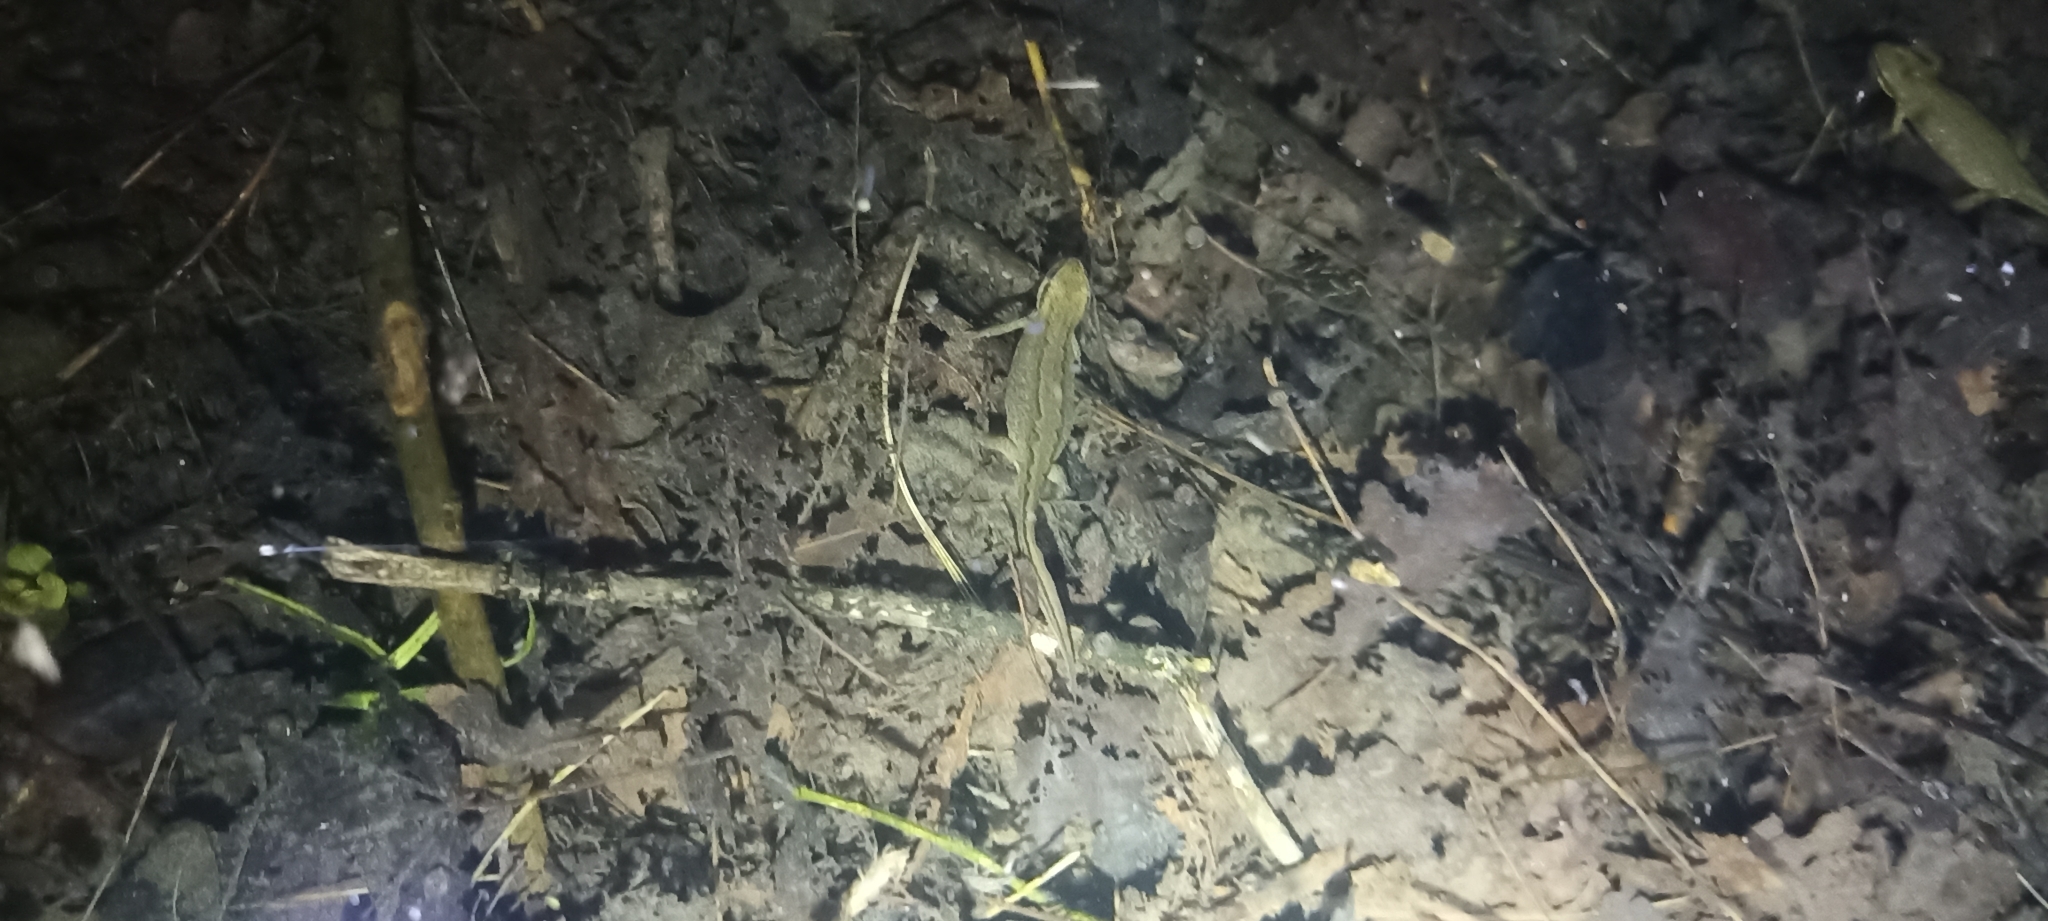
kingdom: Animalia
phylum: Chordata
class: Amphibia
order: Caudata
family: Salamandridae
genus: Lissotriton
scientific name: Lissotriton helveticus
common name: Palmate newt
